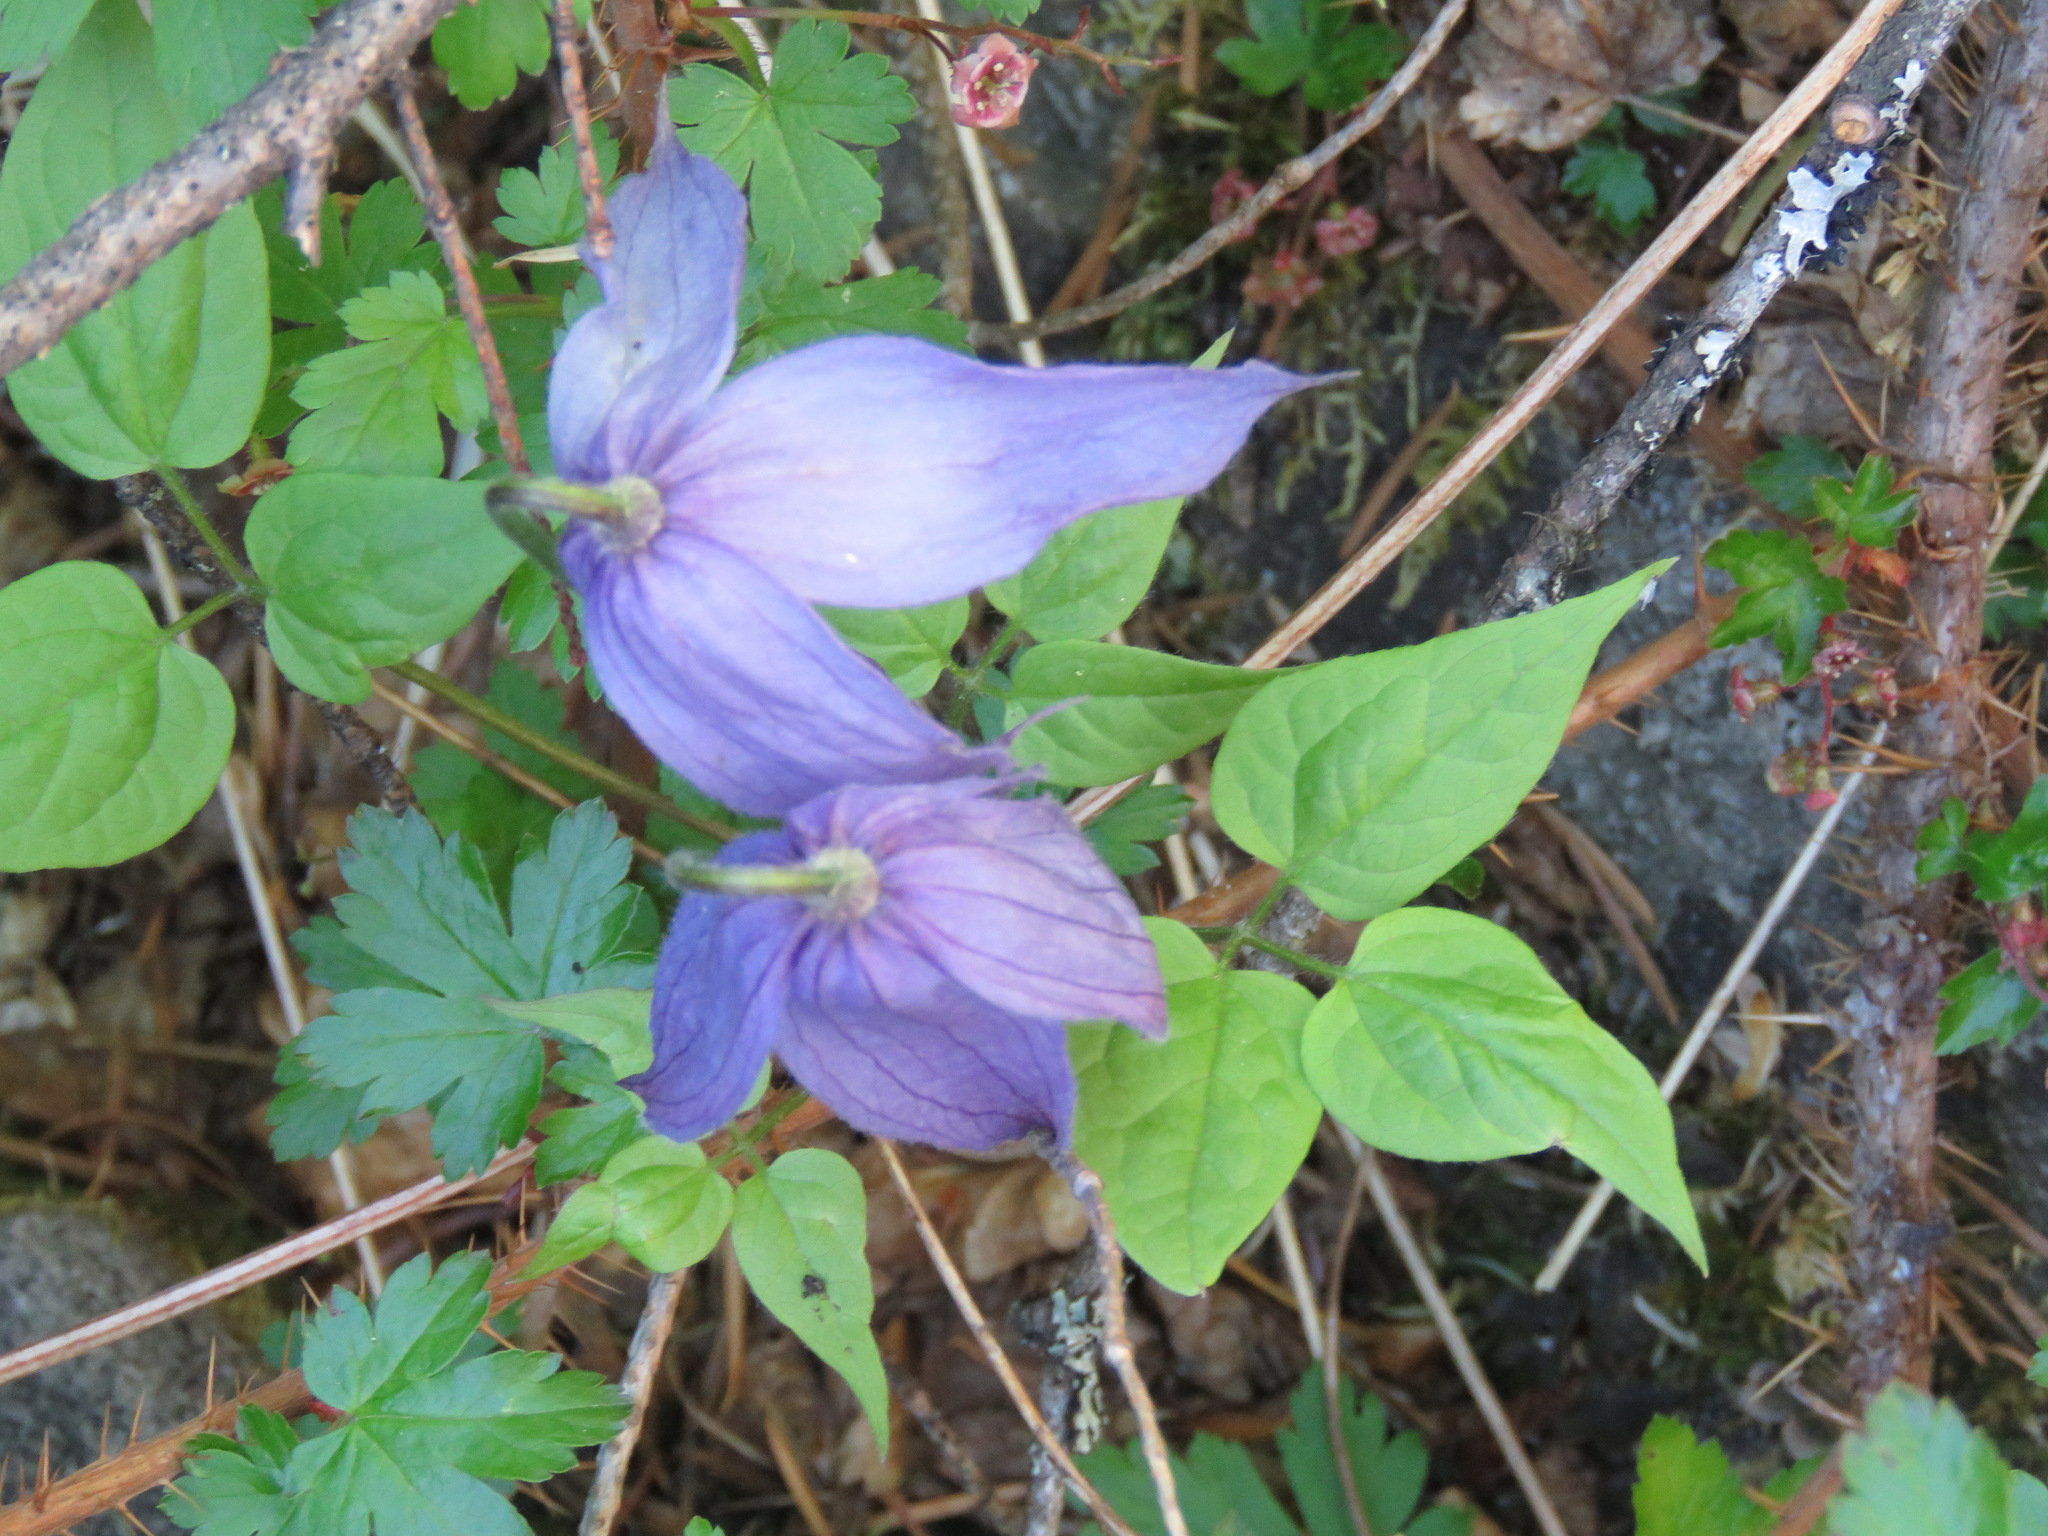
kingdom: Plantae
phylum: Tracheophyta
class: Magnoliopsida
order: Ranunculales
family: Ranunculaceae
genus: Clematis
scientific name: Clematis occidentalis
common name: Purple clematis
